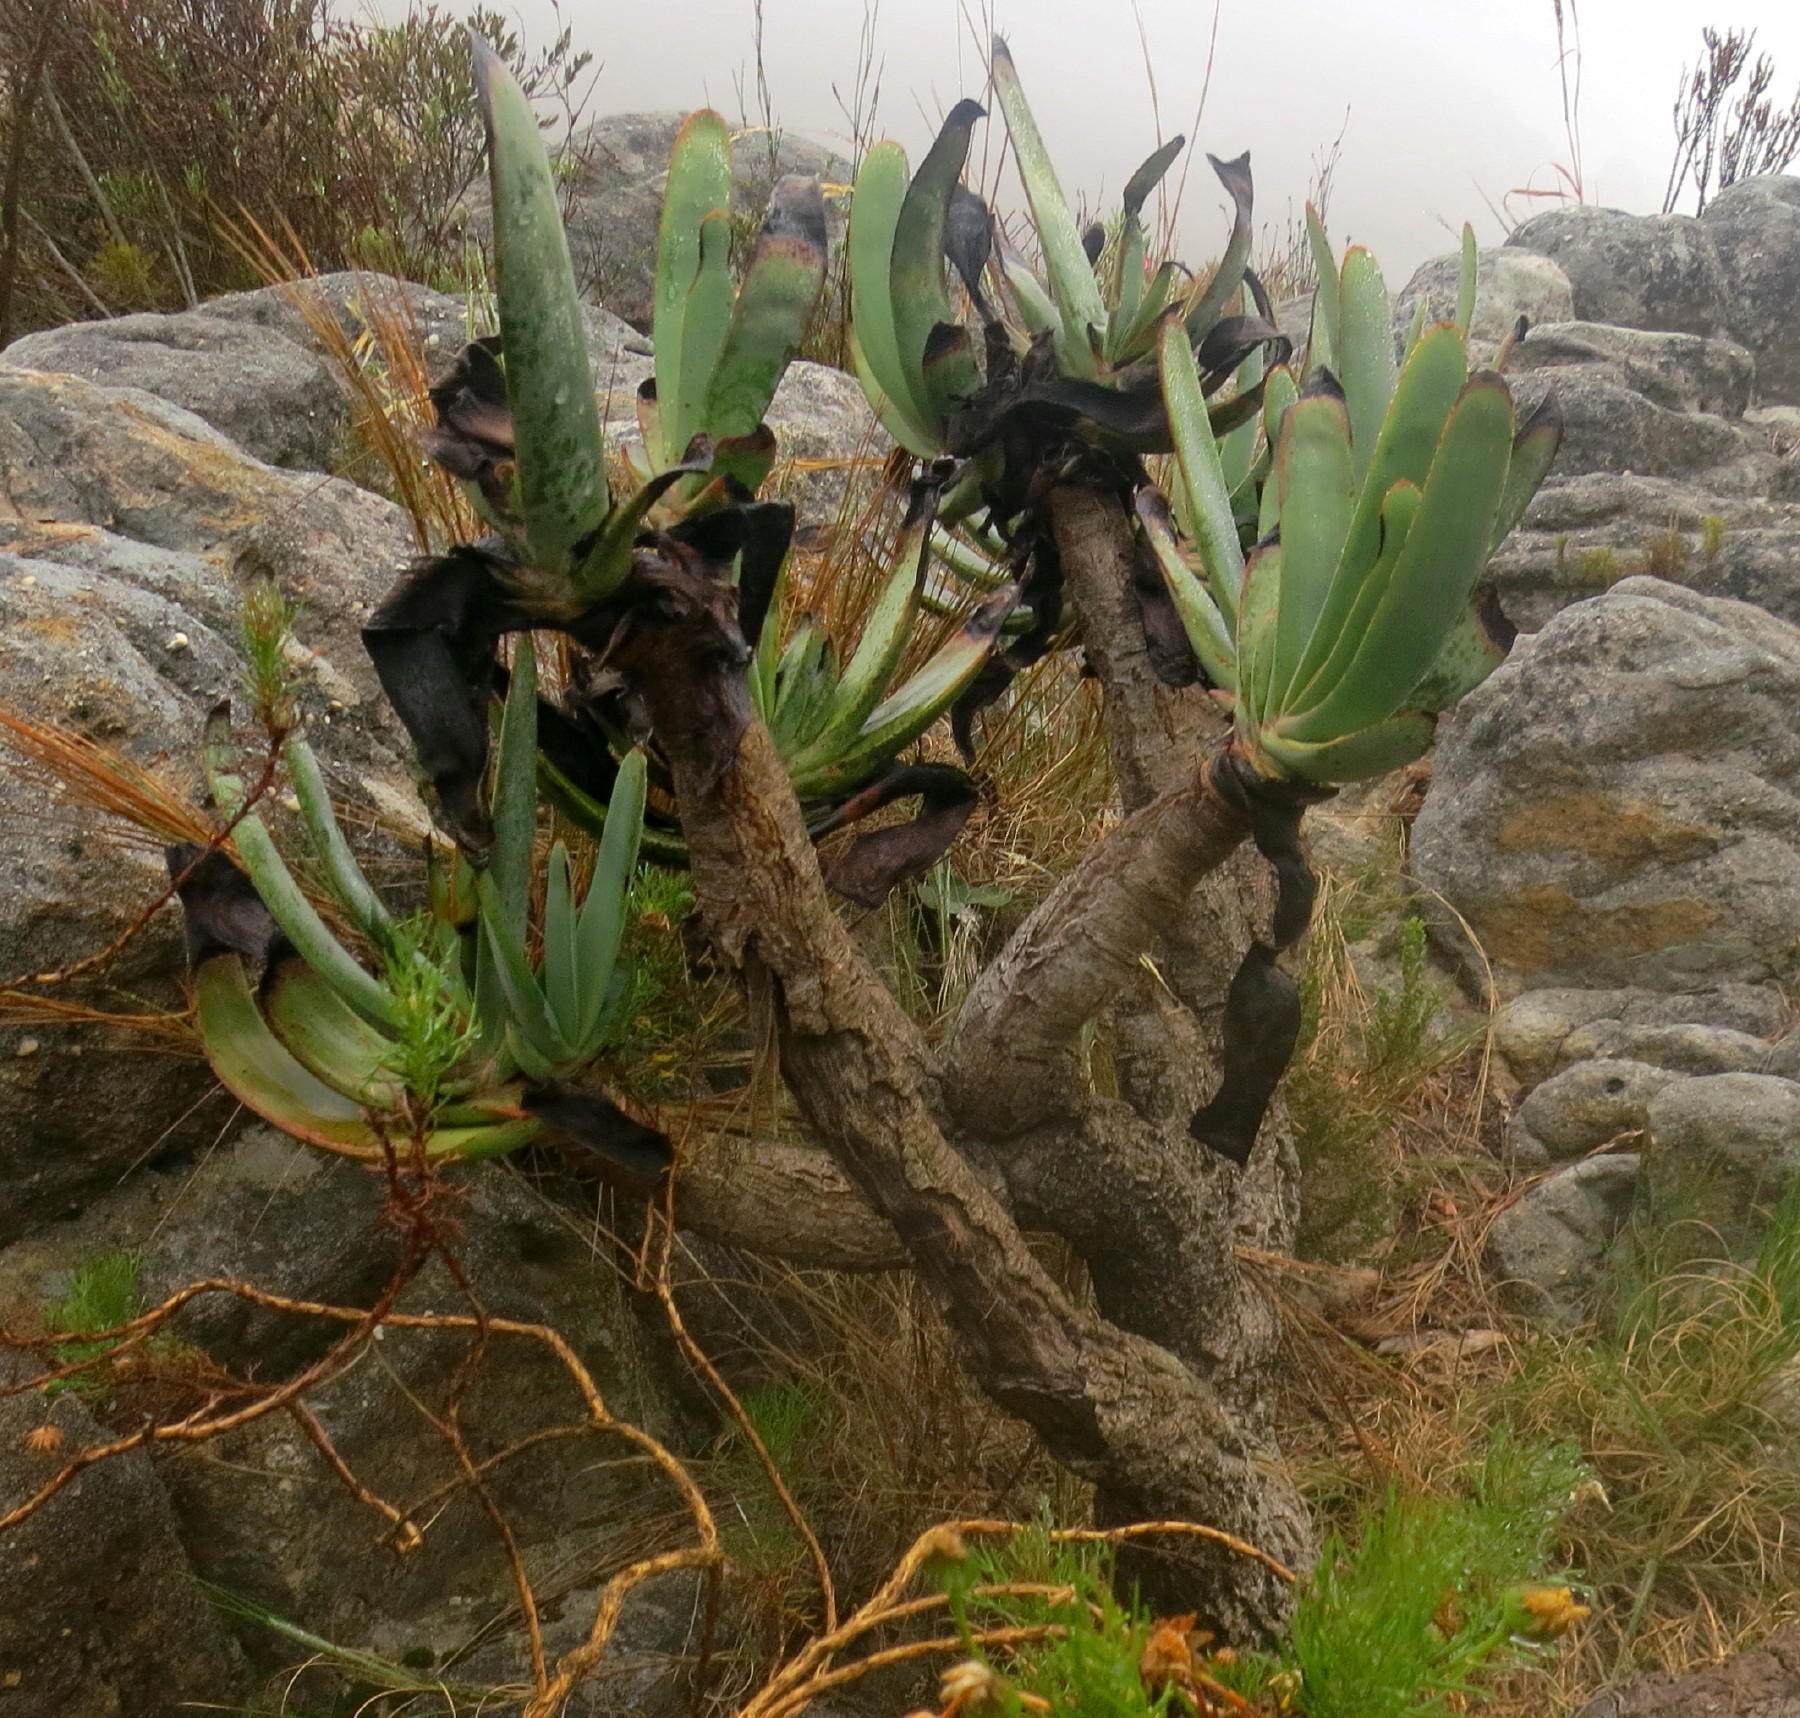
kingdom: Plantae
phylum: Tracheophyta
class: Liliopsida
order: Asparagales
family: Asphodelaceae
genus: Kumara
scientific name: Kumara plicatilis
